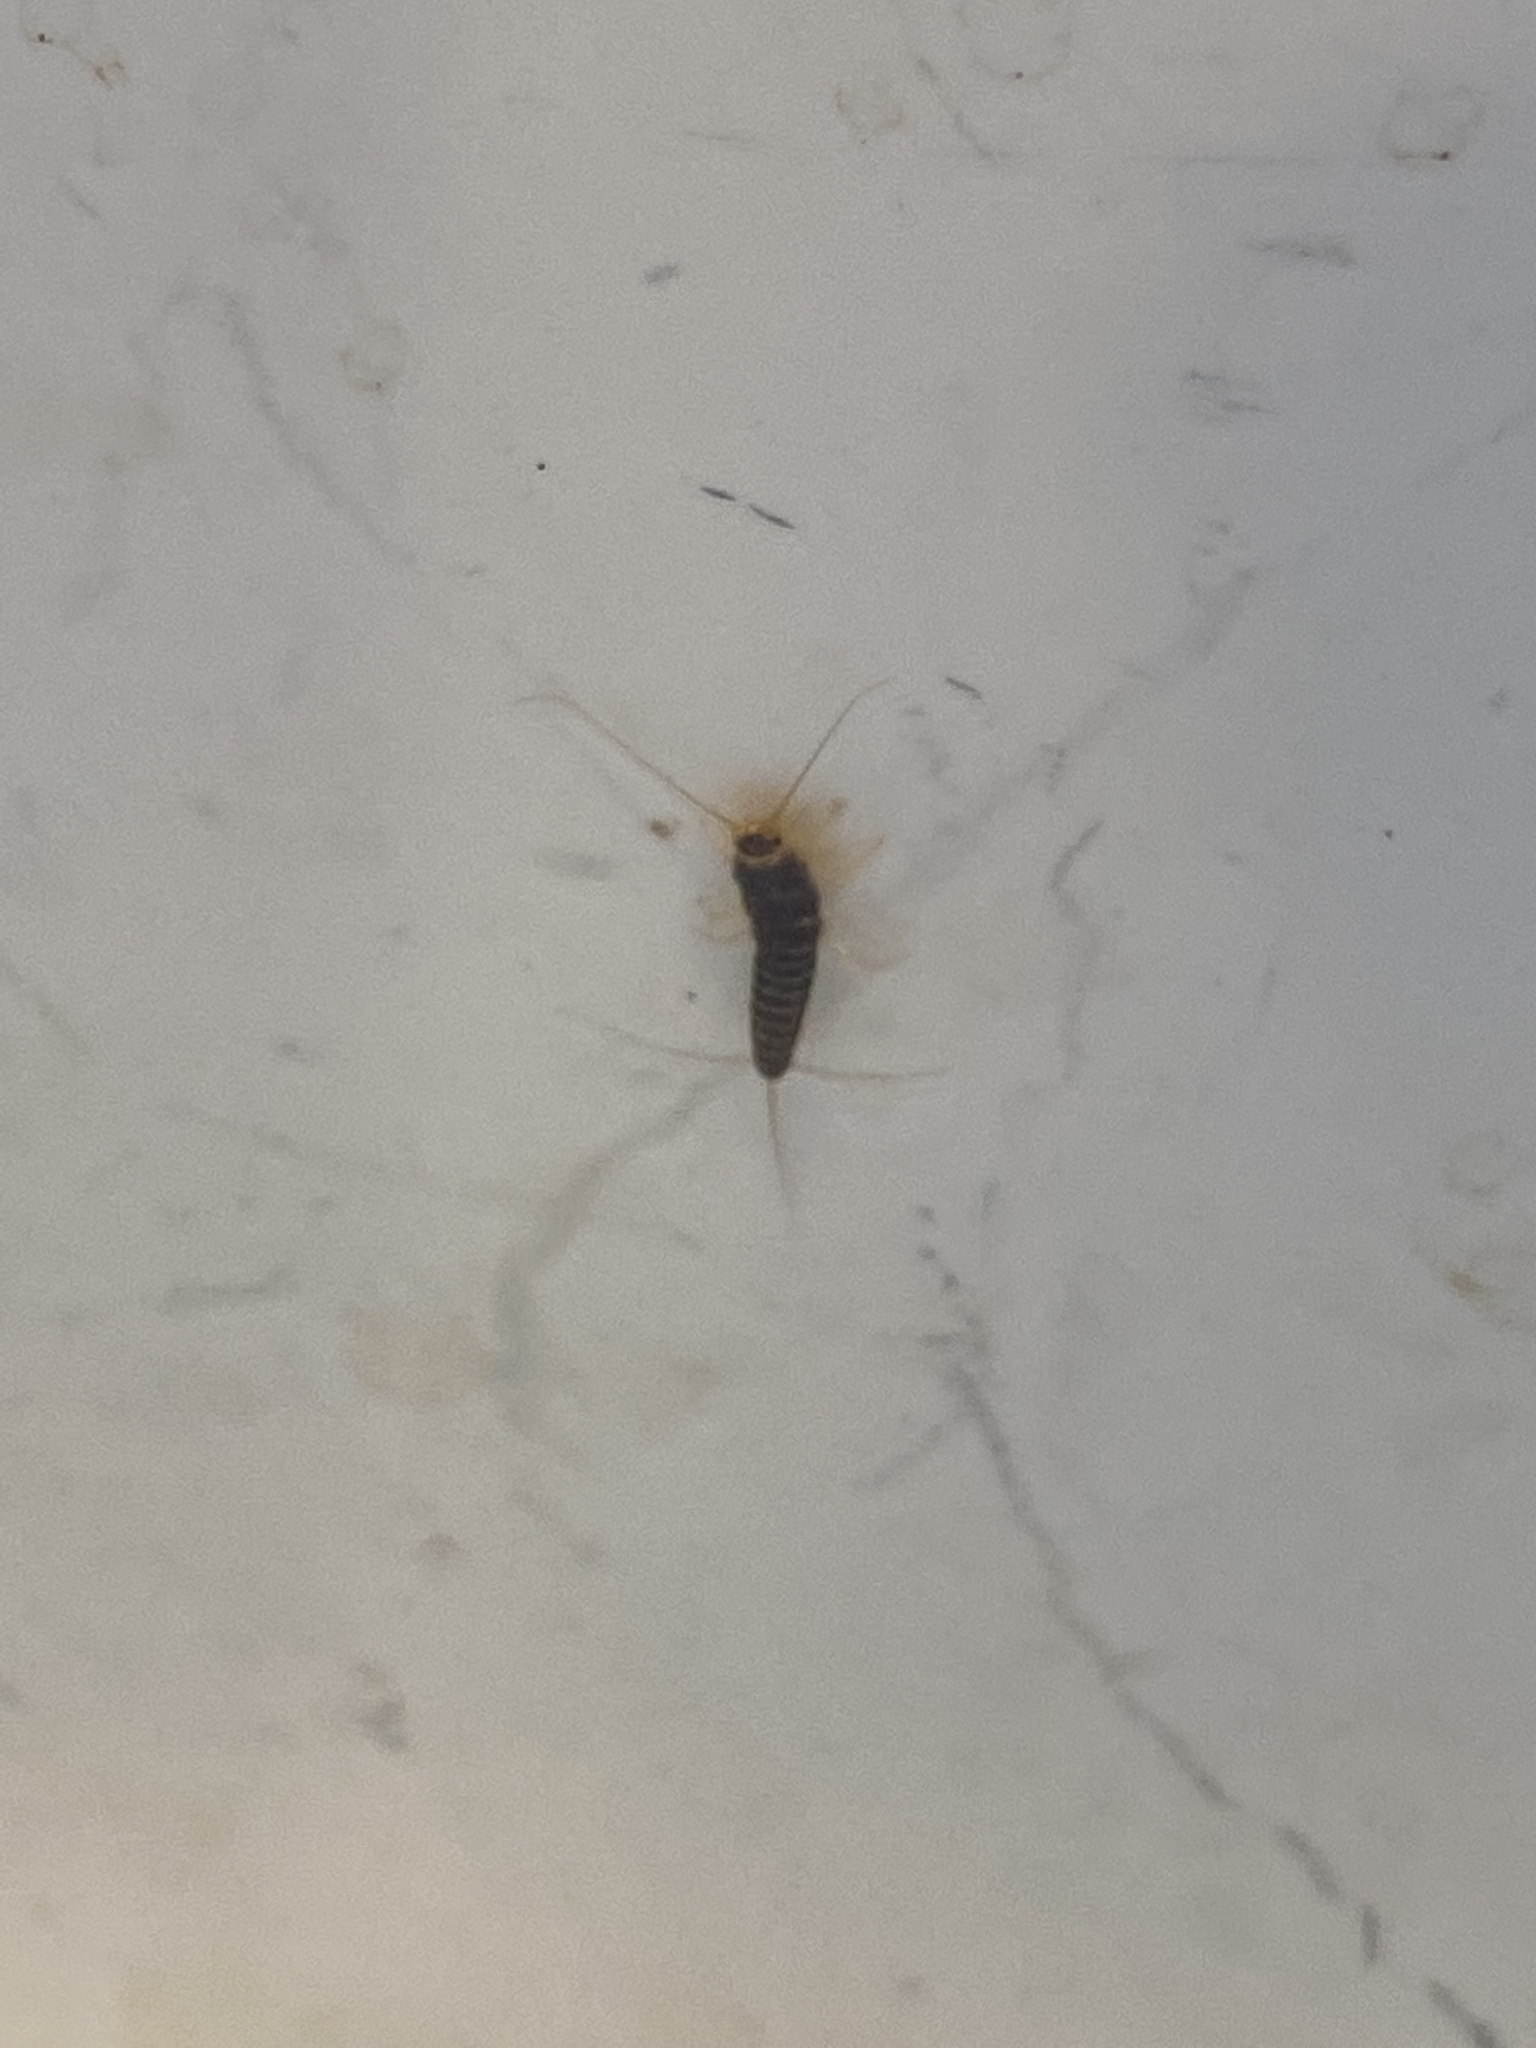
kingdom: Animalia
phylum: Arthropoda
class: Insecta
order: Zygentoma
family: Lepismatidae
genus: Ctenolepisma
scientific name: Ctenolepisma longicaudatum
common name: Silverfish
